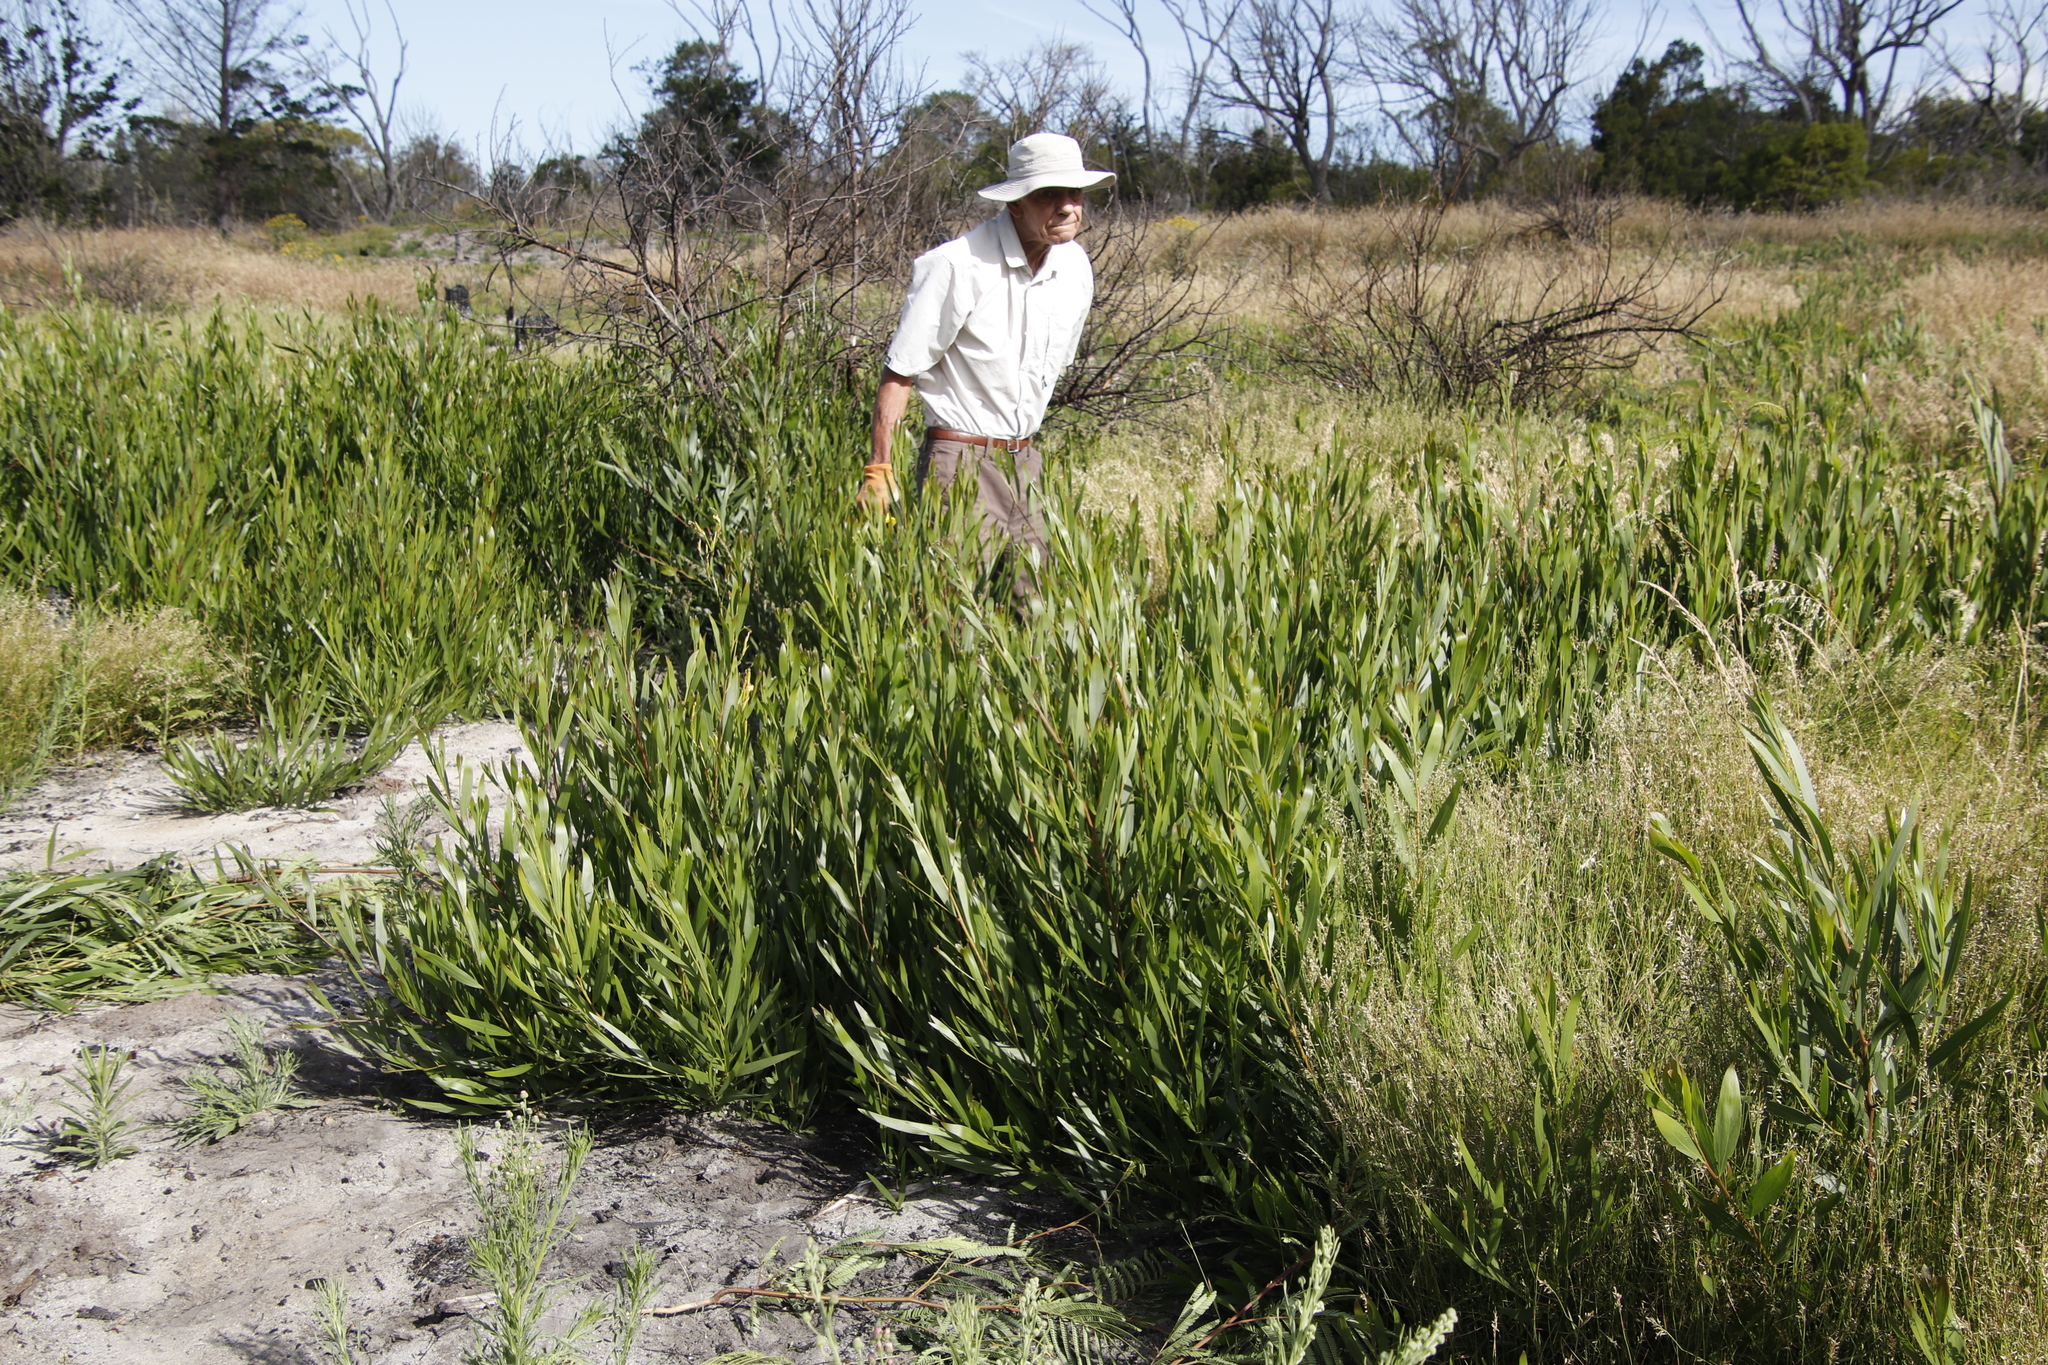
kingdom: Plantae
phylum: Tracheophyta
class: Magnoliopsida
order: Fabales
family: Fabaceae
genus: Acacia
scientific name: Acacia longifolia
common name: Sydney golden wattle
